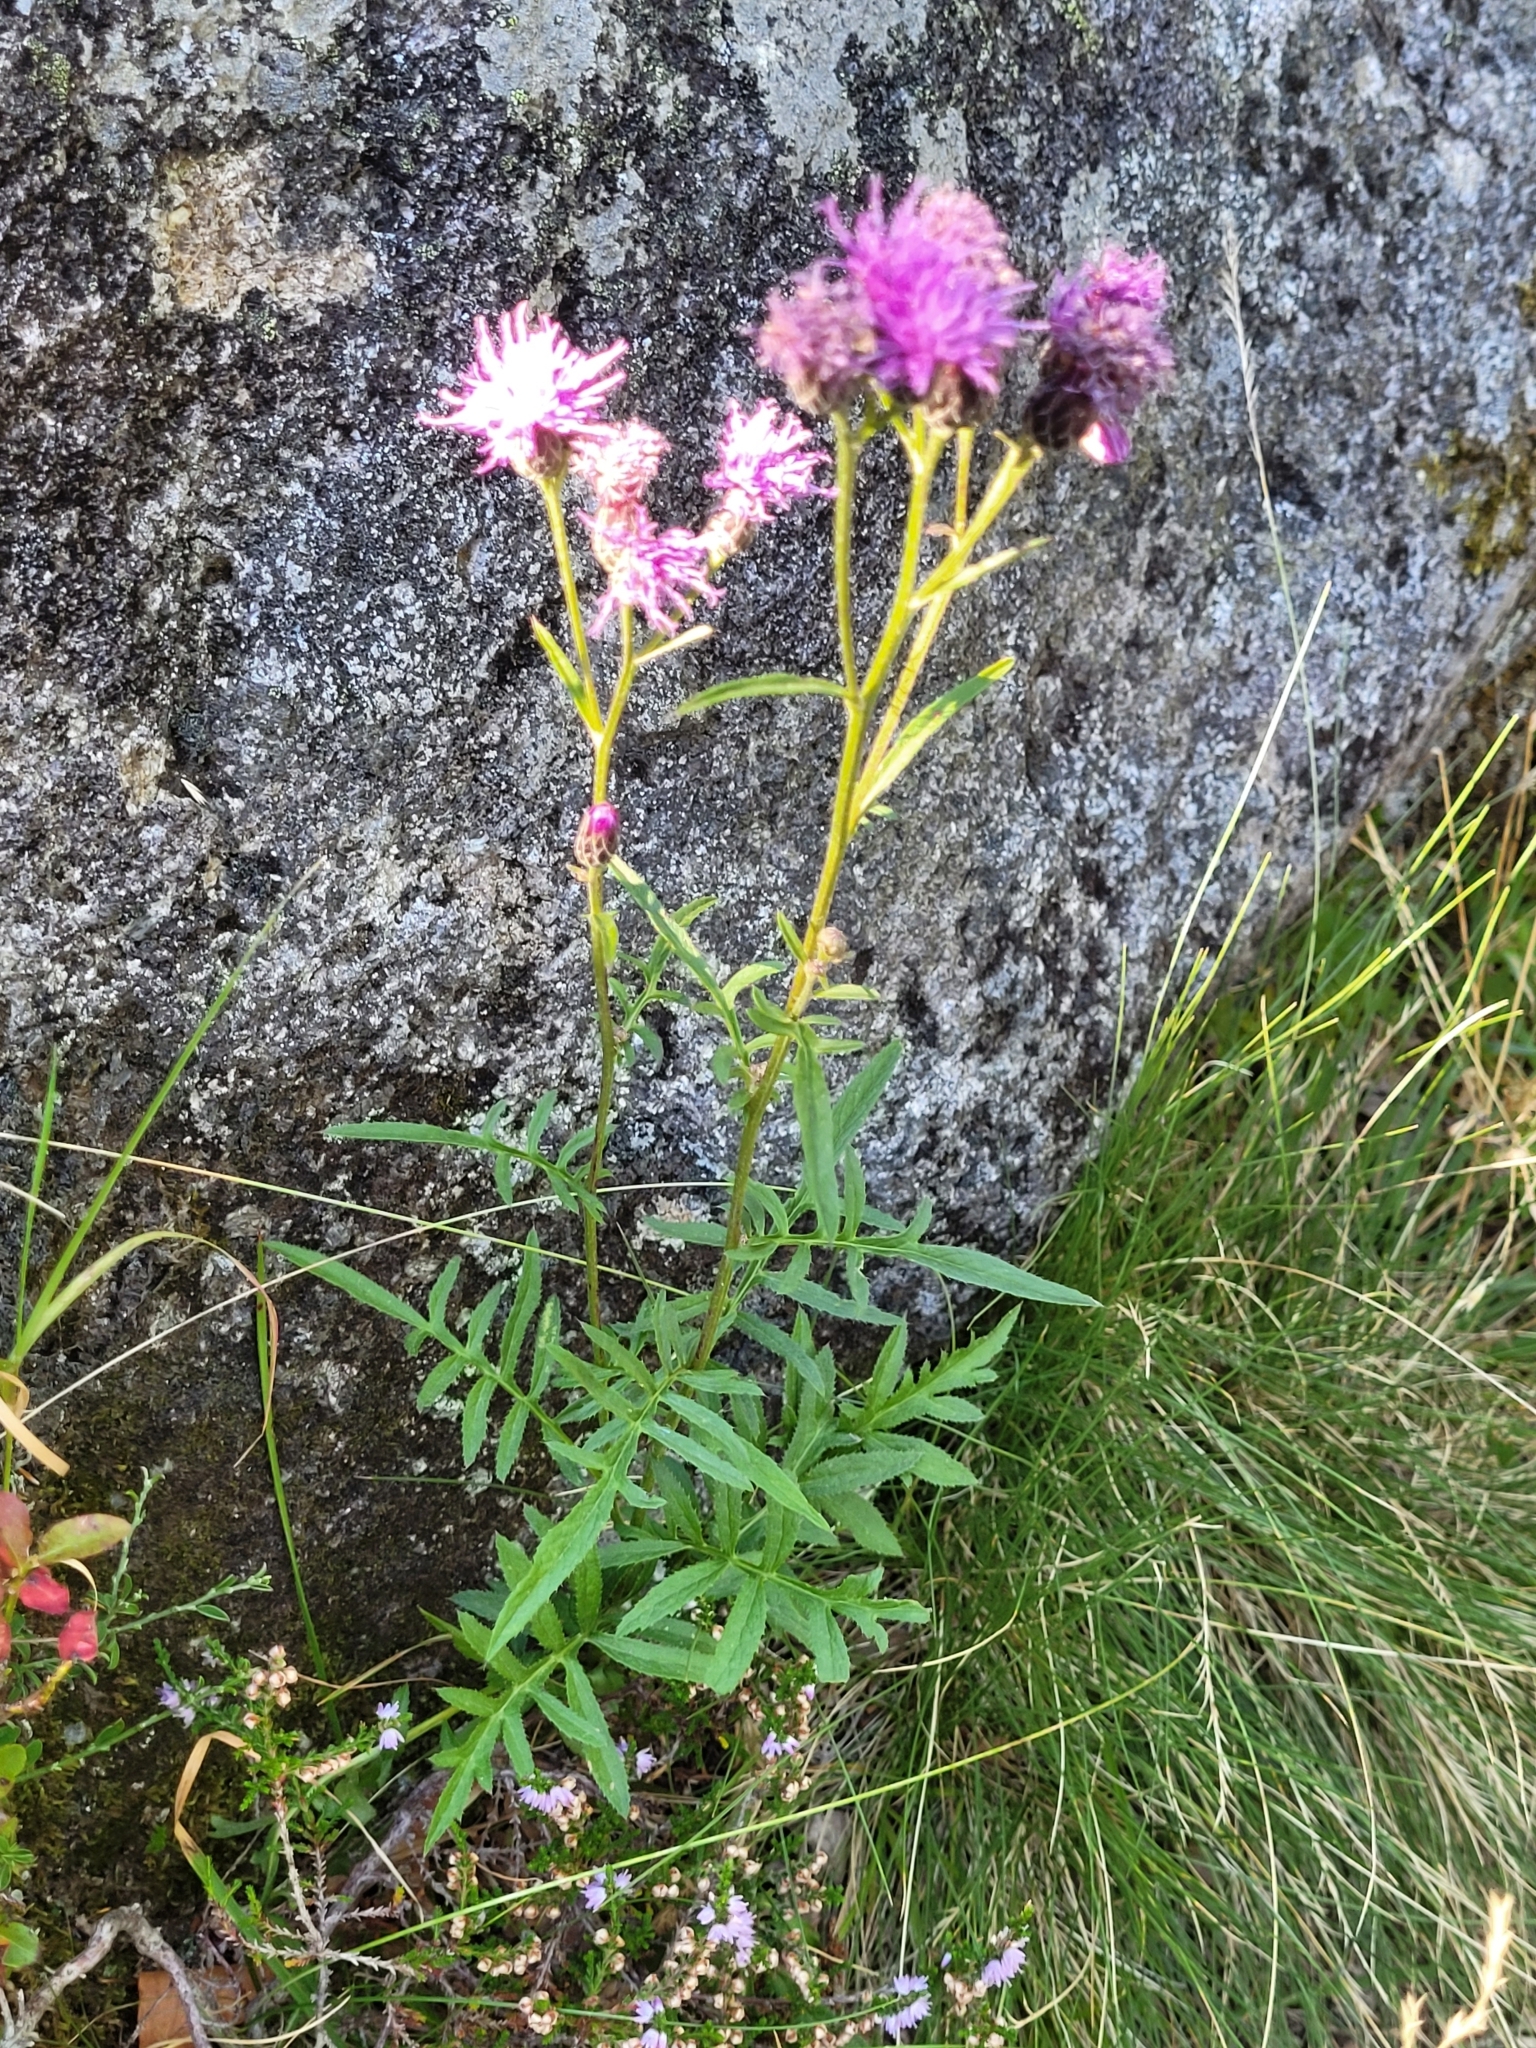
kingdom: Plantae
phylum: Tracheophyta
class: Magnoliopsida
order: Asterales
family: Asteraceae
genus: Serratula
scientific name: Serratula tinctoria
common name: Saw-wort
